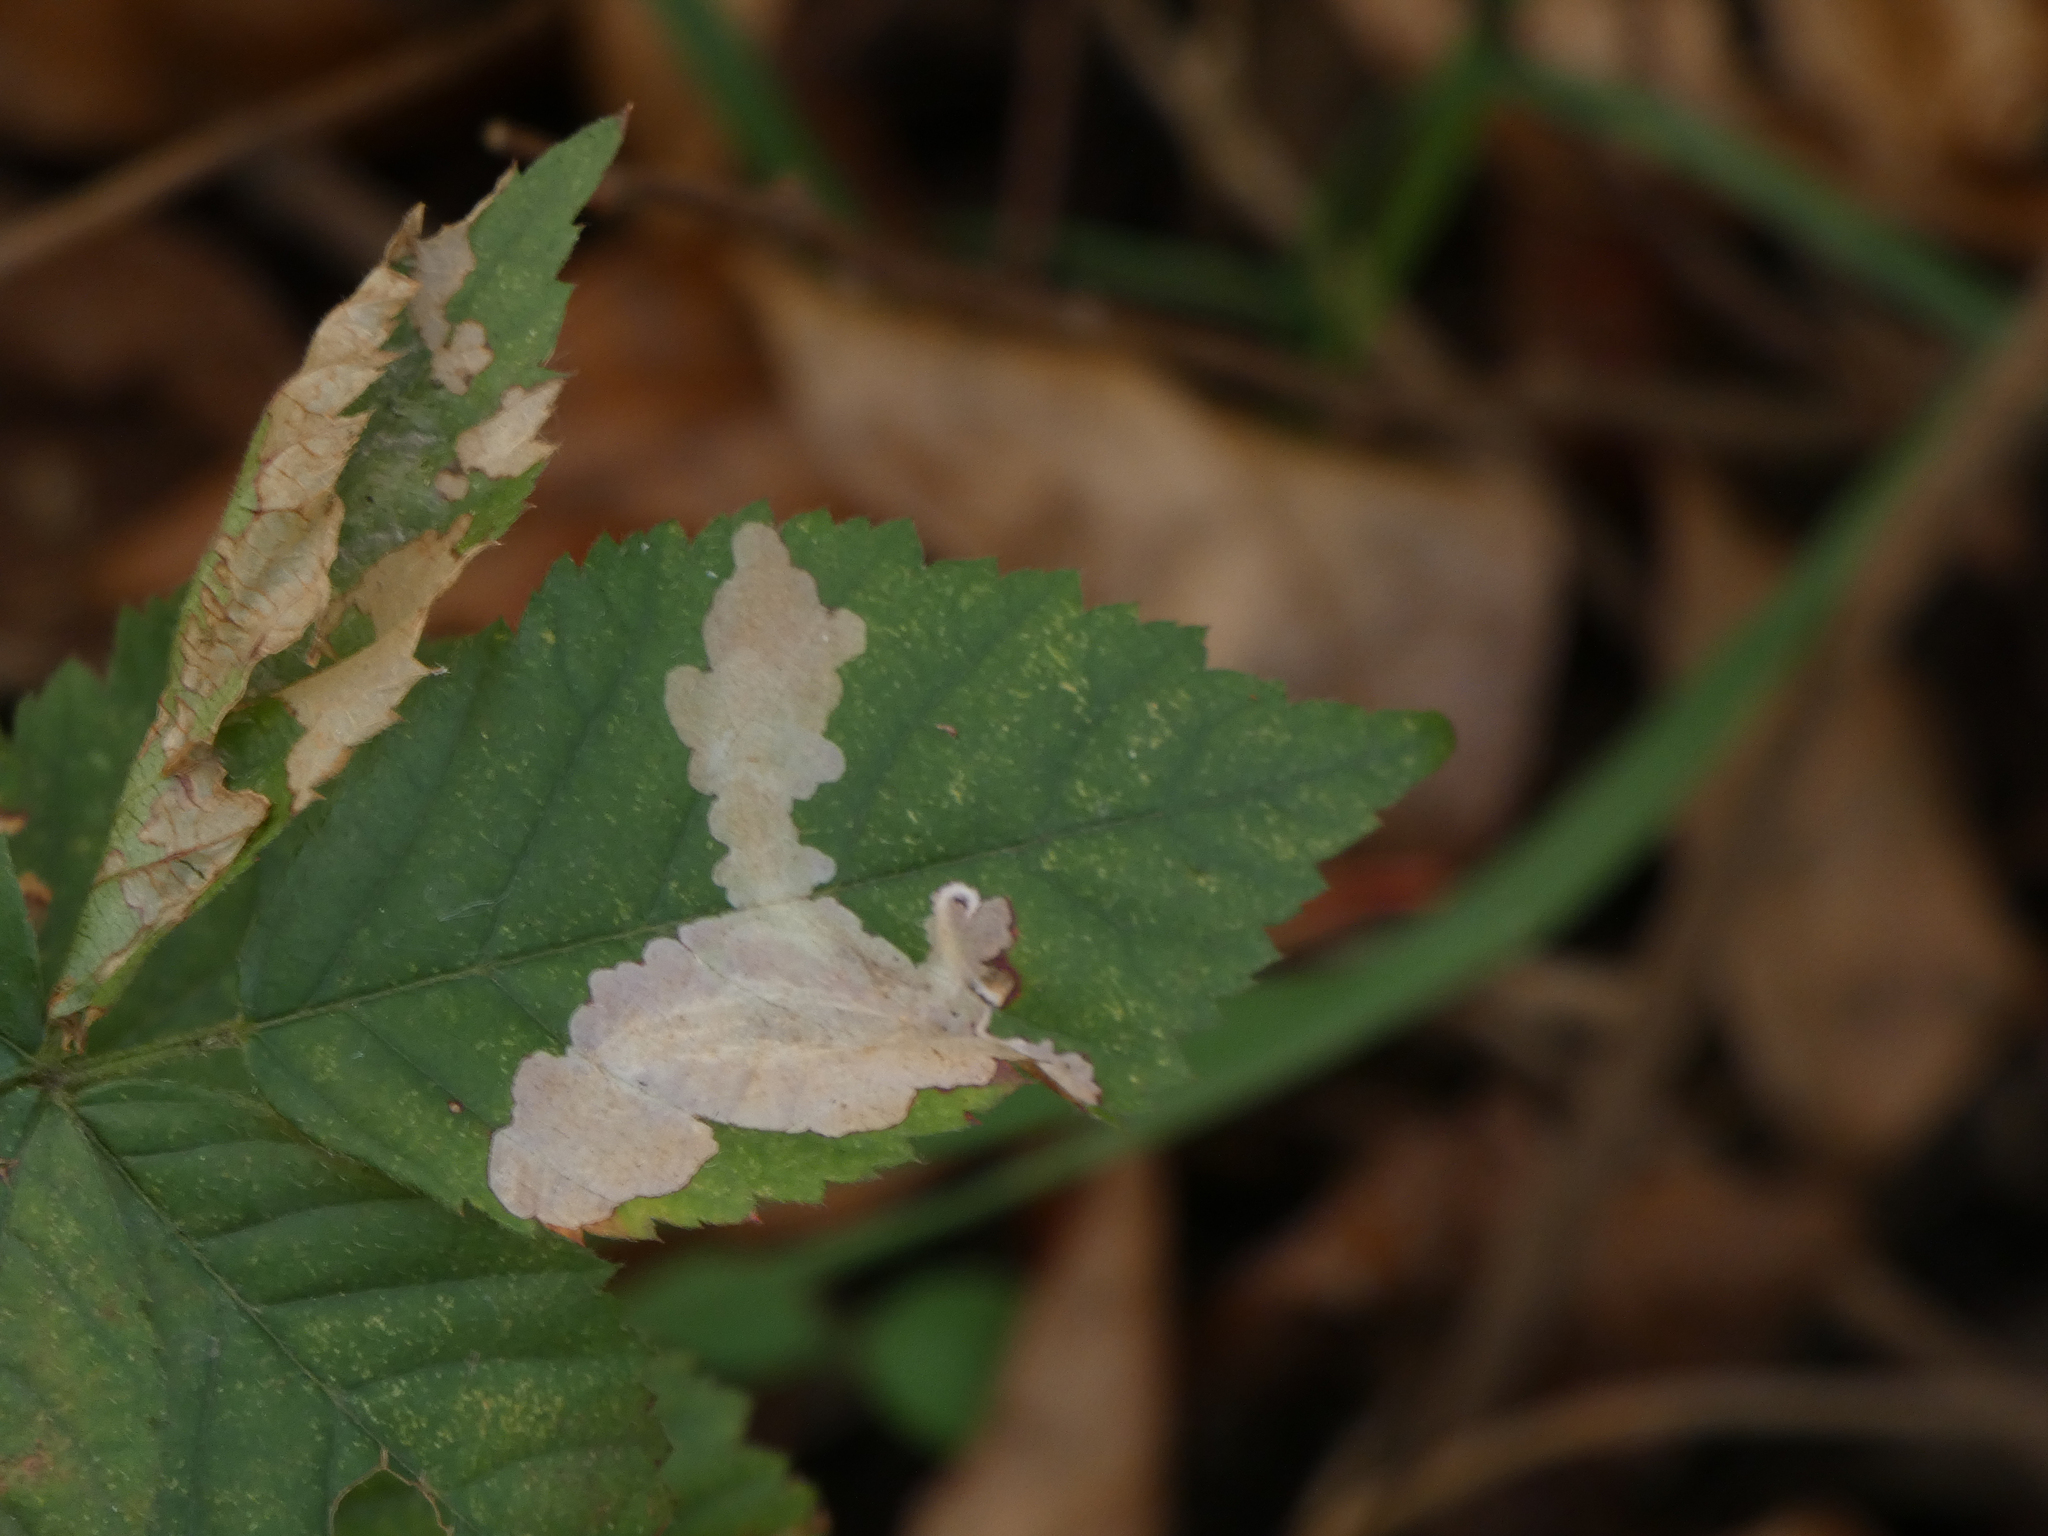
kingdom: Animalia
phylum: Arthropoda
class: Insecta
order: Lepidoptera
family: Tischeriidae
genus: Coptotriche
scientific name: Coptotriche aenea
